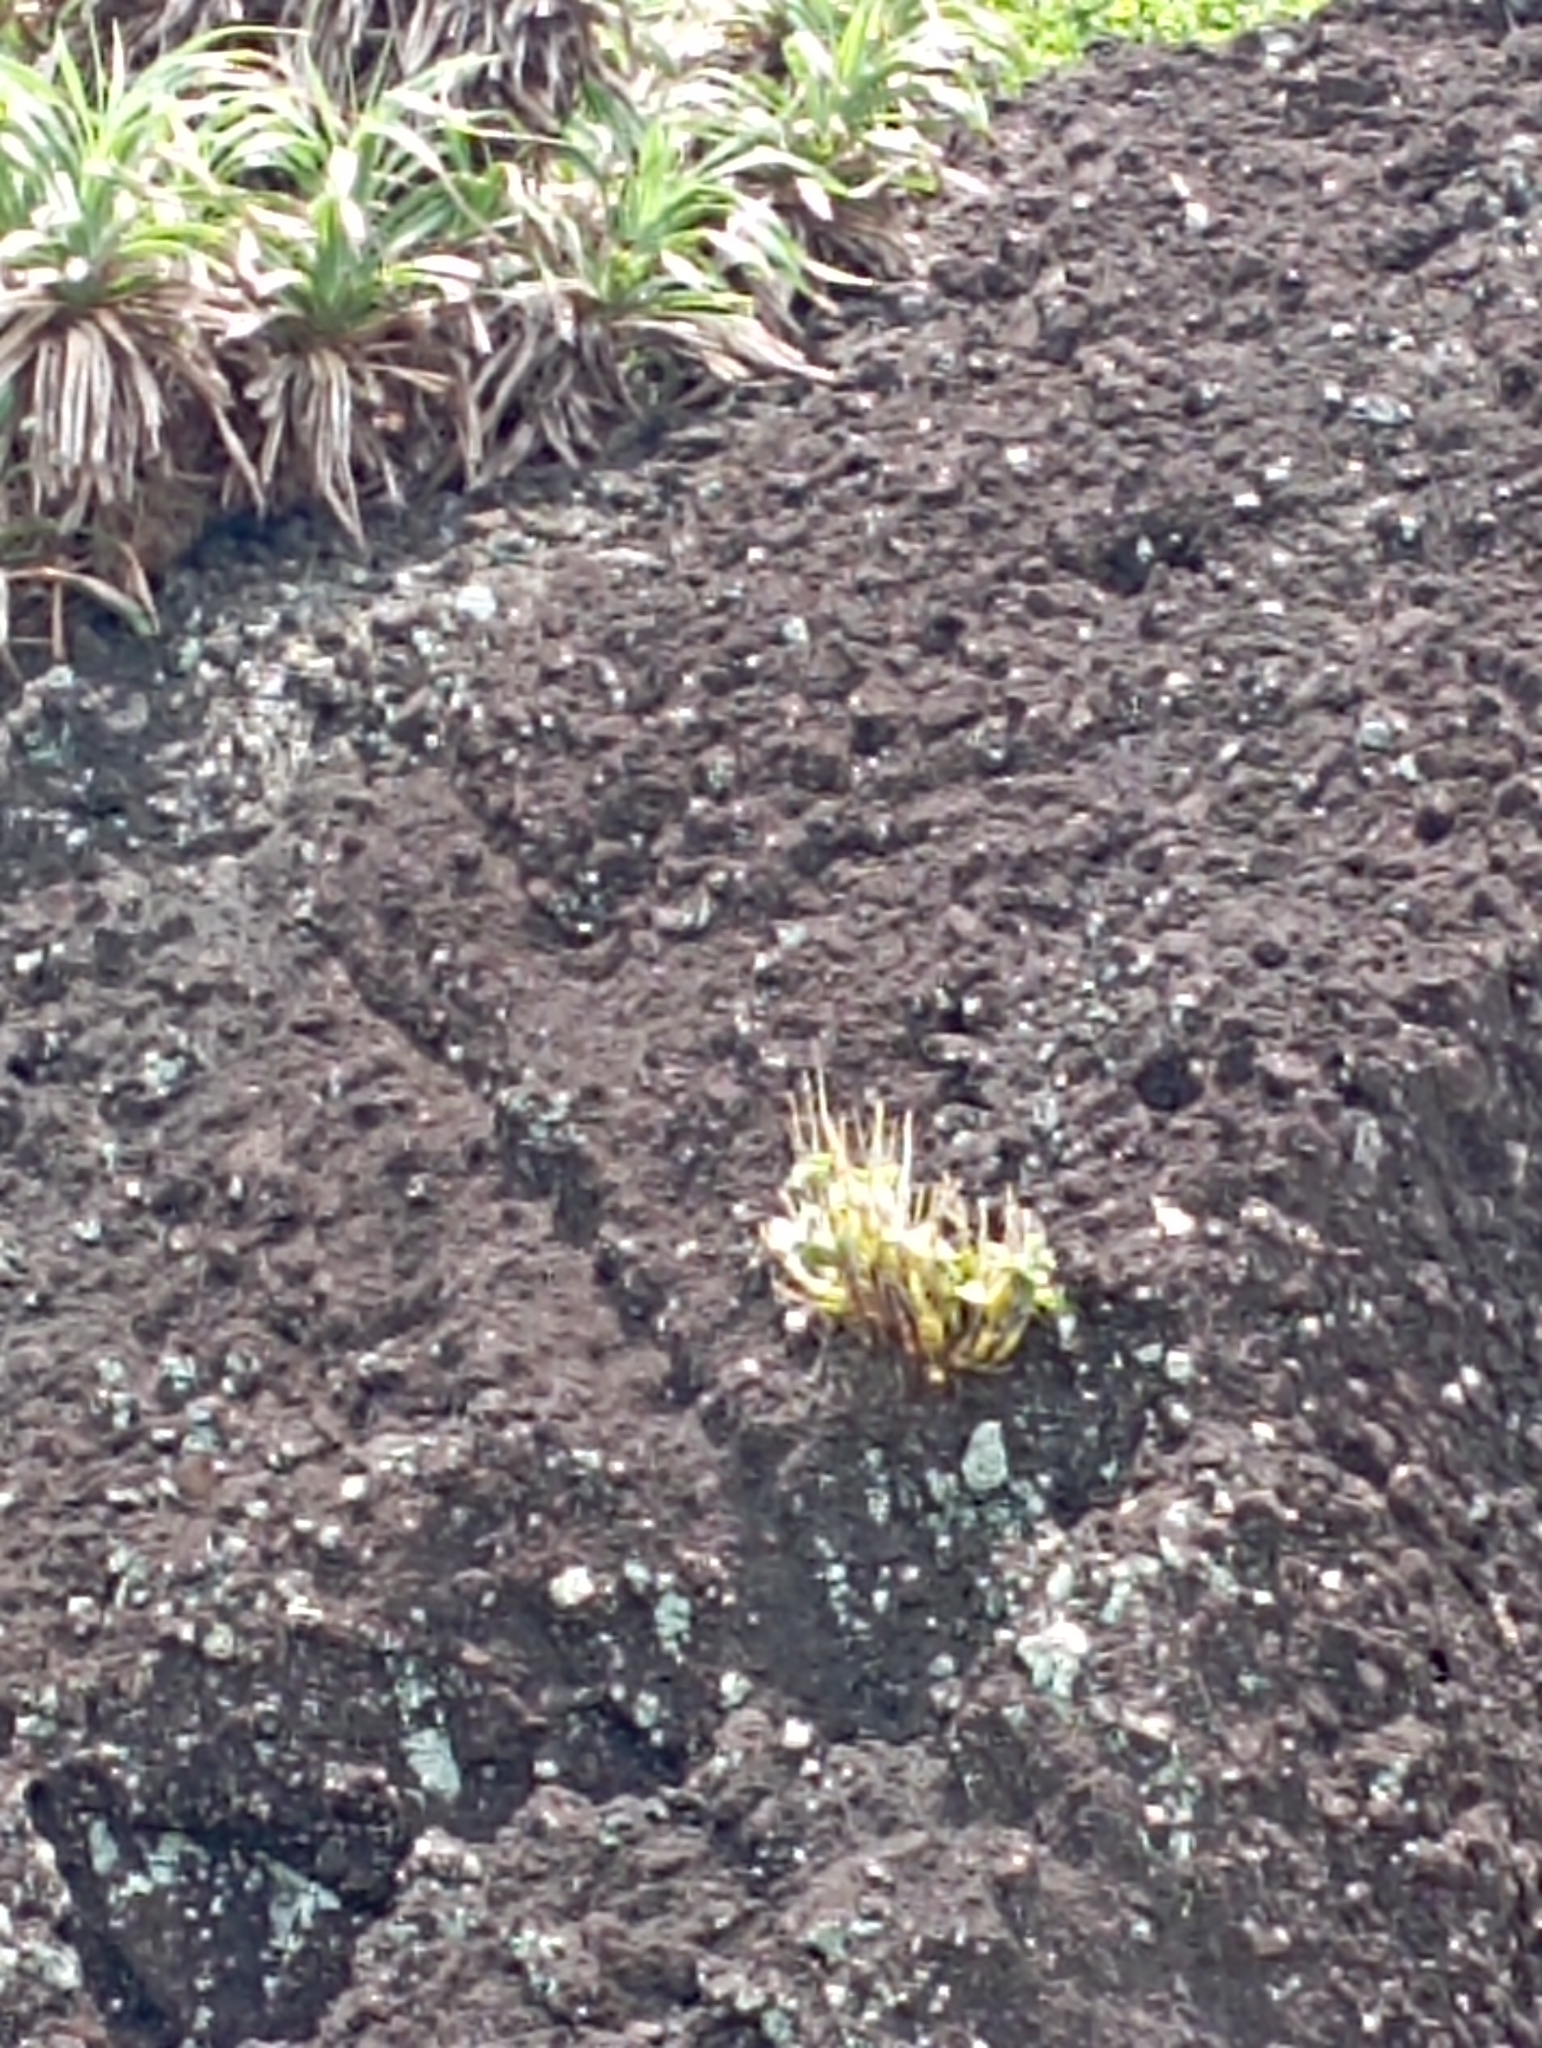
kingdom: Plantae
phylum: Tracheophyta
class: Liliopsida
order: Asparagales
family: Orchidaceae
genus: Dendrobium
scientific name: Dendrobium crumenatum
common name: Orchid
